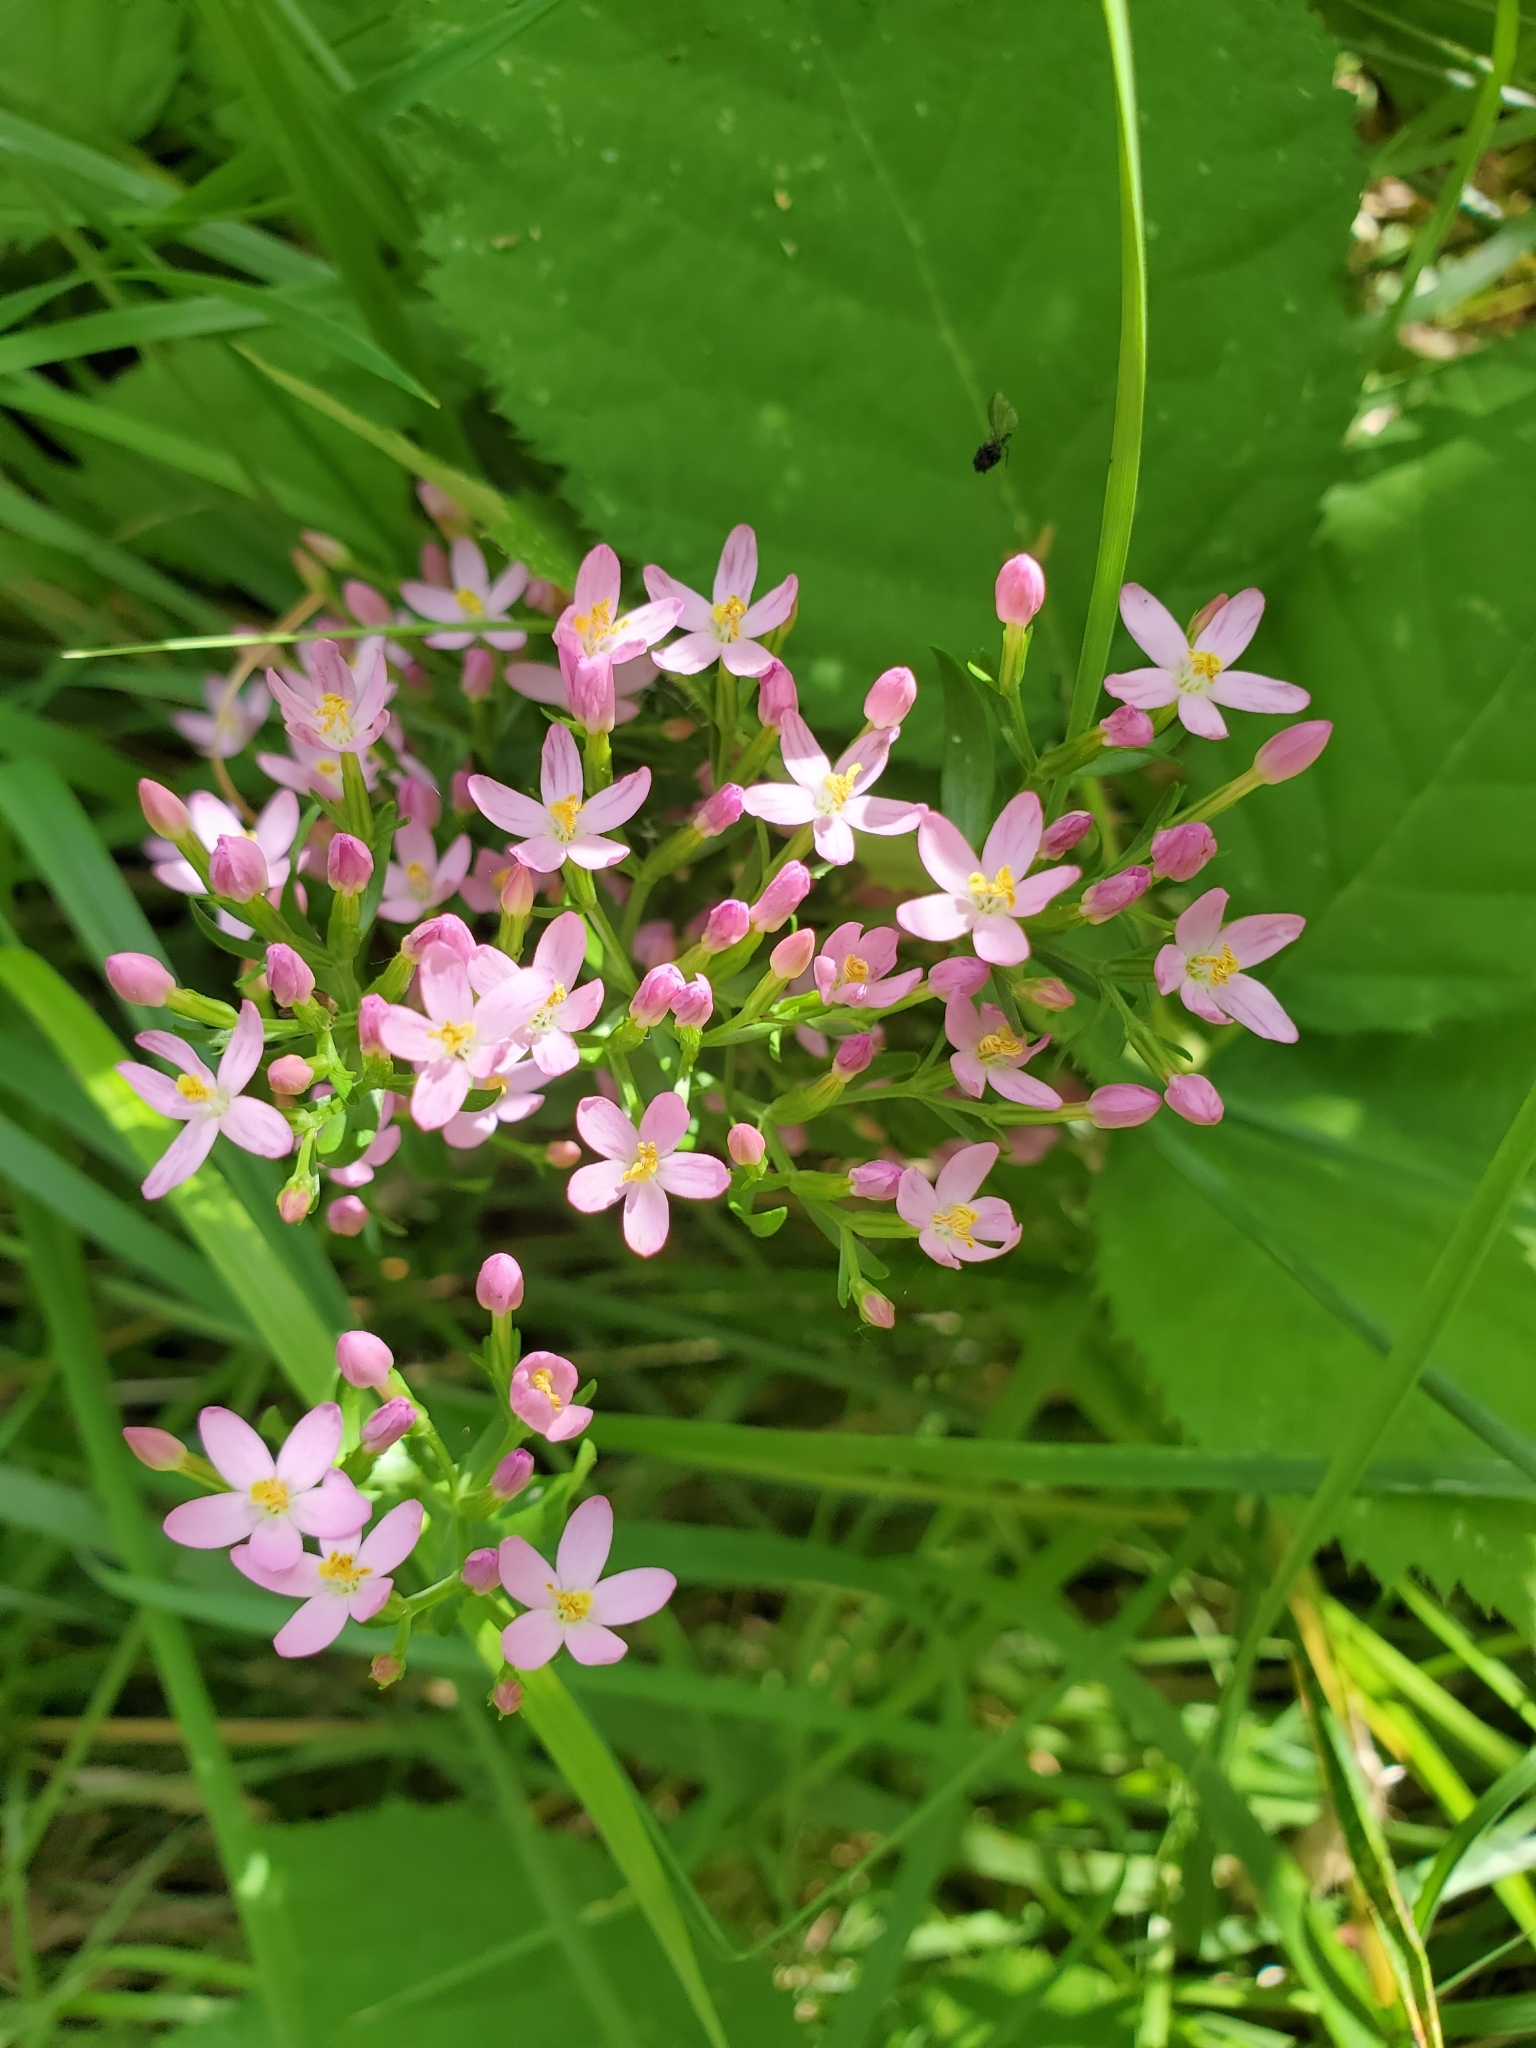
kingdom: Plantae
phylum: Tracheophyta
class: Magnoliopsida
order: Gentianales
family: Gentianaceae
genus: Centaurium
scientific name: Centaurium erythraea
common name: Common centaury
